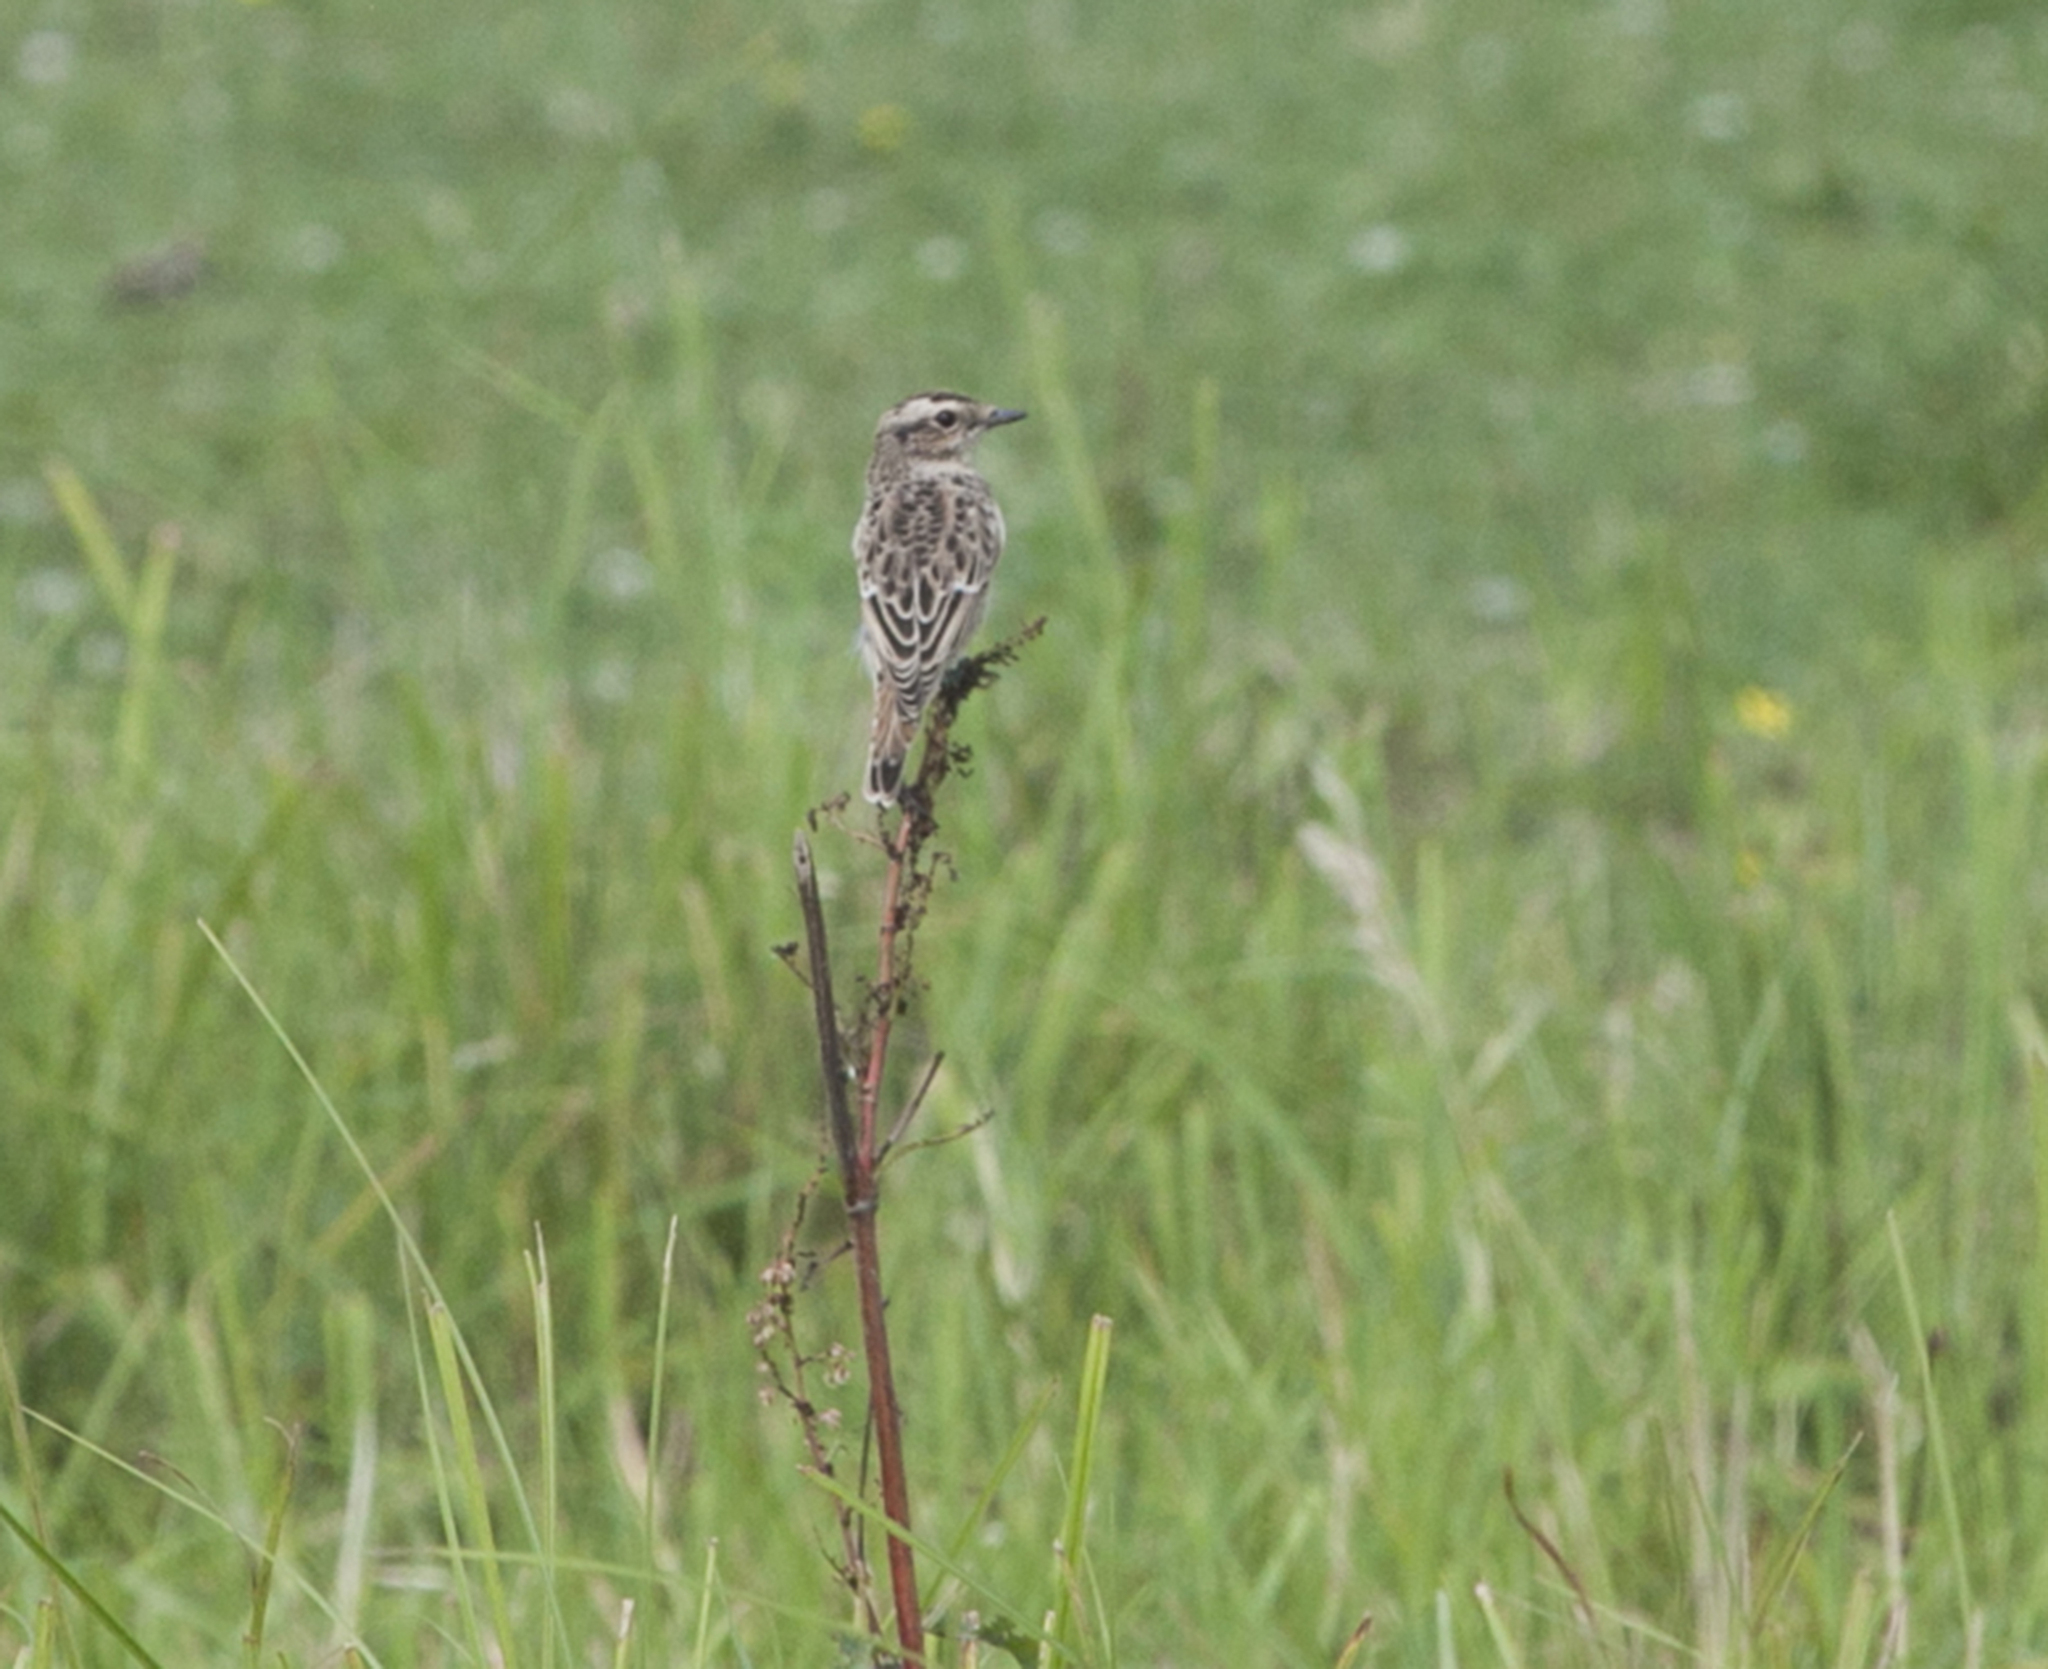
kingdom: Animalia
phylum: Chordata
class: Aves
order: Passeriformes
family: Muscicapidae
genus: Saxicola
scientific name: Saxicola rubetra
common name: Whinchat
